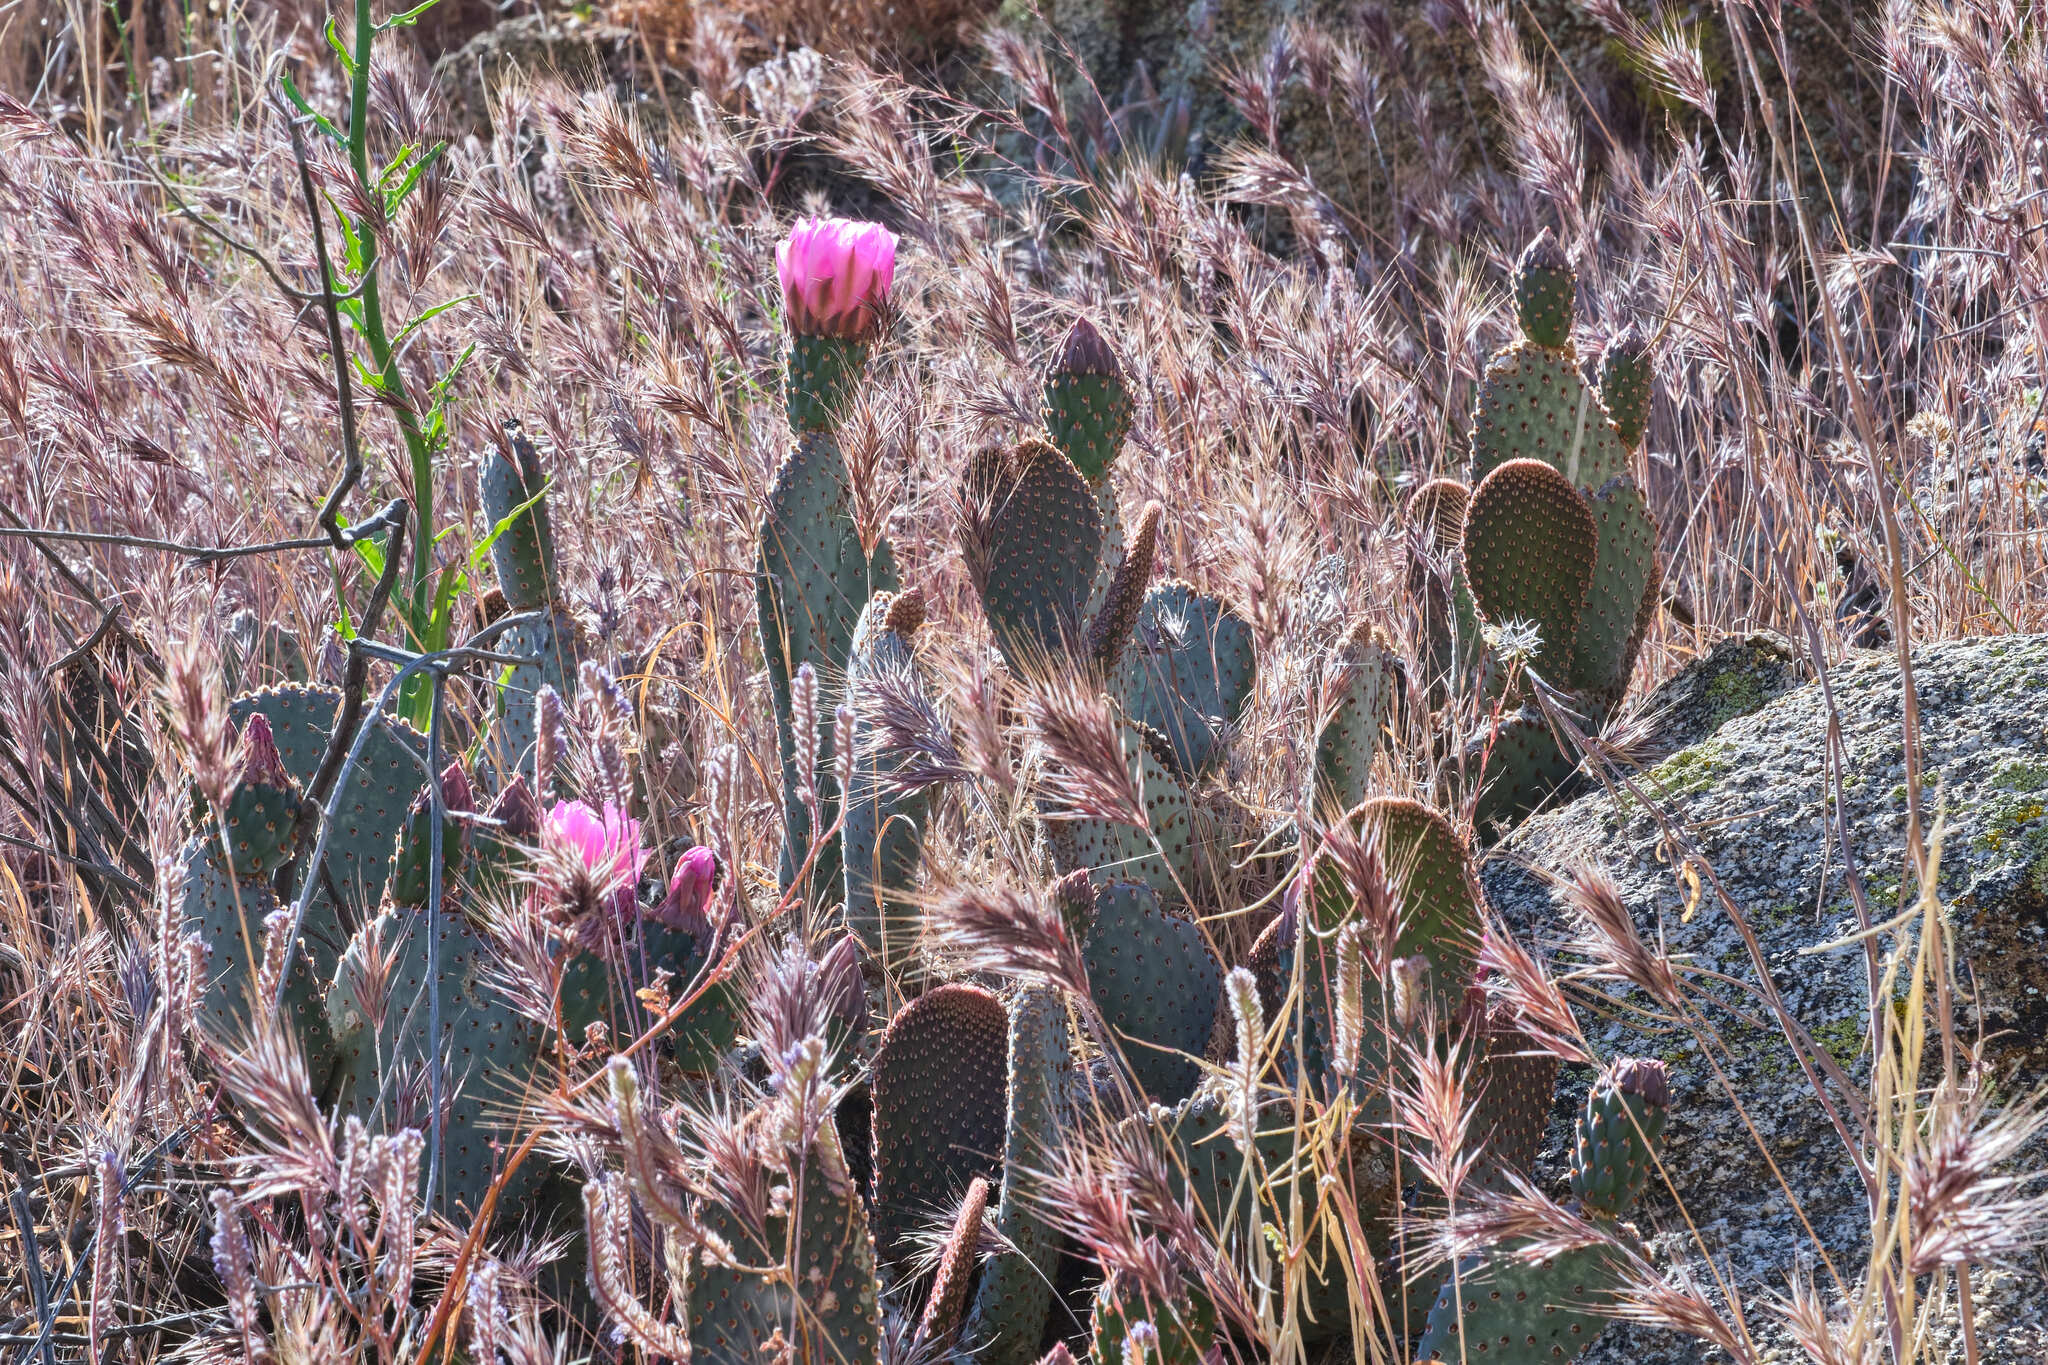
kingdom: Plantae
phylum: Tracheophyta
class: Magnoliopsida
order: Caryophyllales
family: Cactaceae
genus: Opuntia
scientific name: Opuntia basilaris
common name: Beavertail prickly-pear
